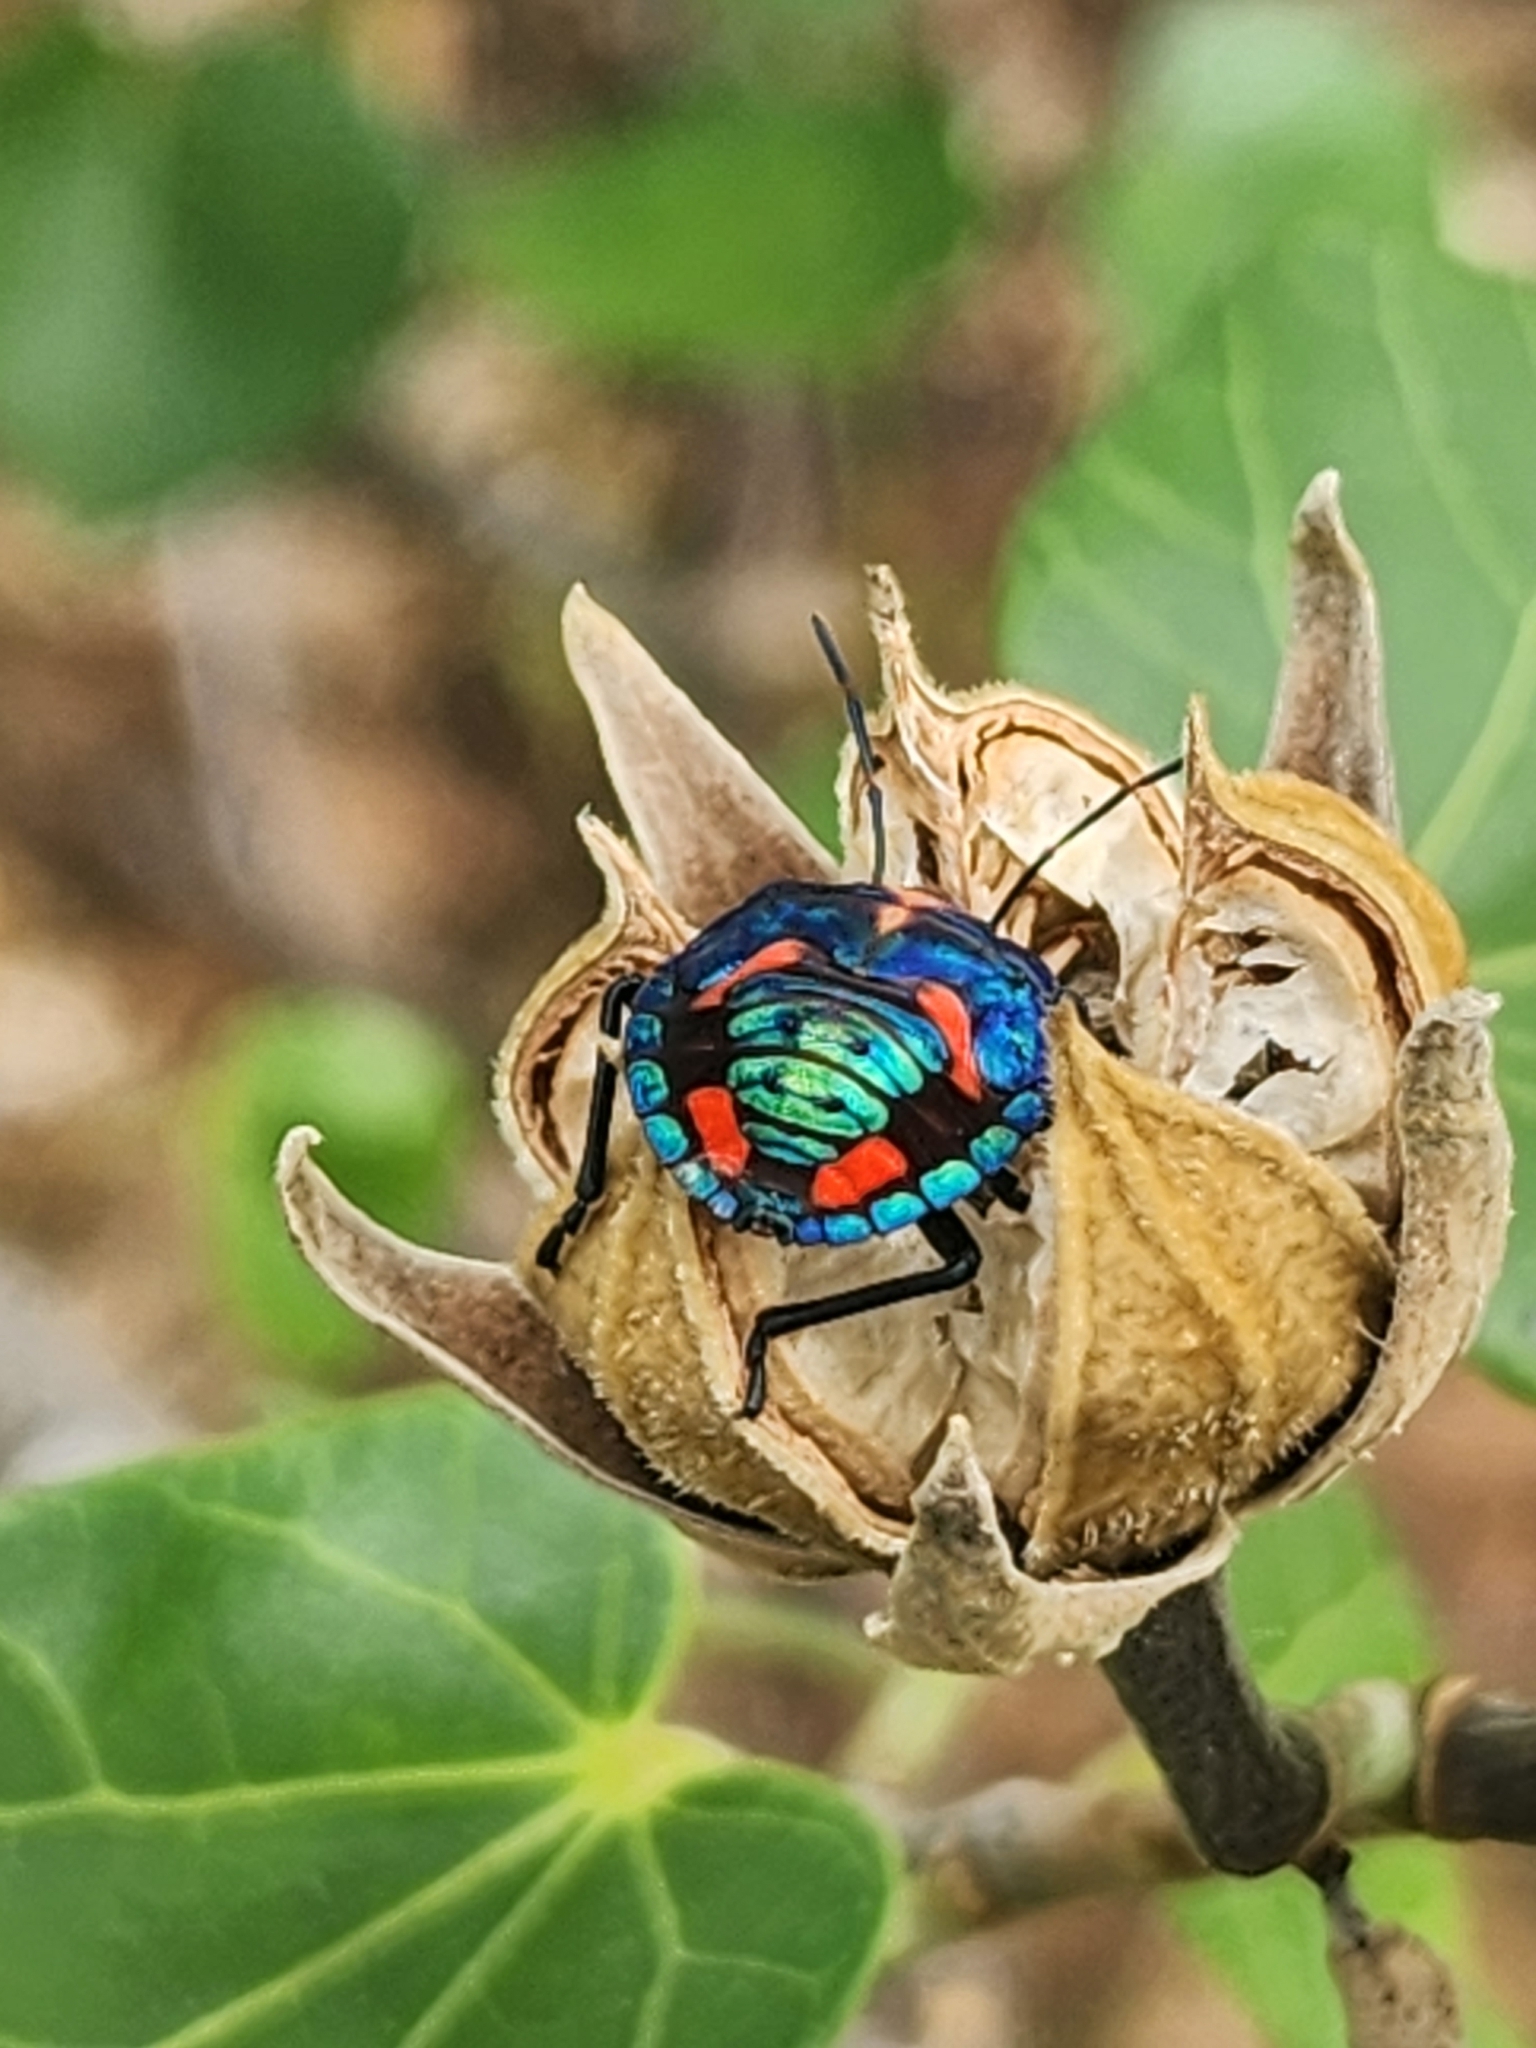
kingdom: Animalia
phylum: Arthropoda
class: Insecta
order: Hemiptera
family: Scutelleridae
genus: Tectocoris
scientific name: Tectocoris diophthalmus
